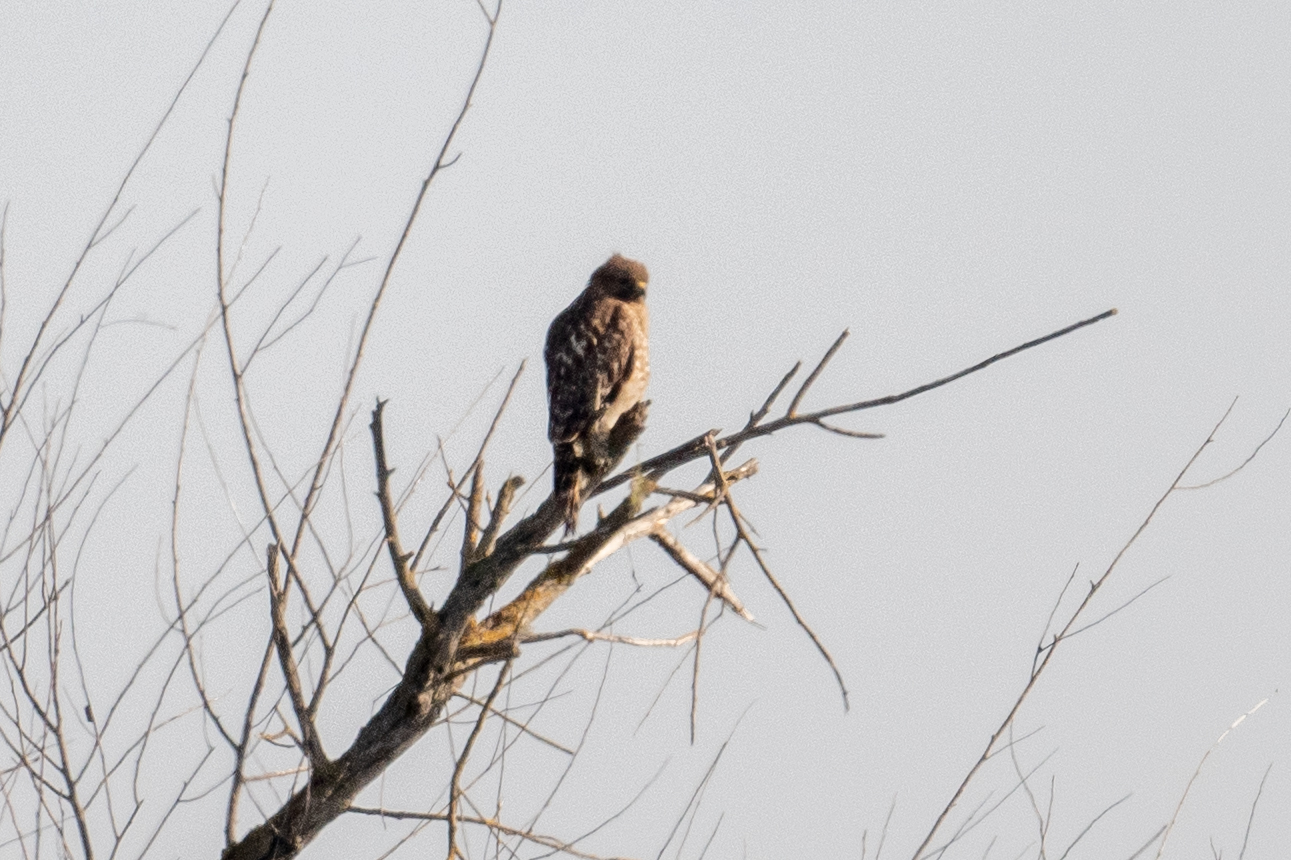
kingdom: Animalia
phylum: Chordata
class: Aves
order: Accipitriformes
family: Accipitridae
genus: Buteo
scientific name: Buteo lineatus
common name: Red-shouldered hawk
